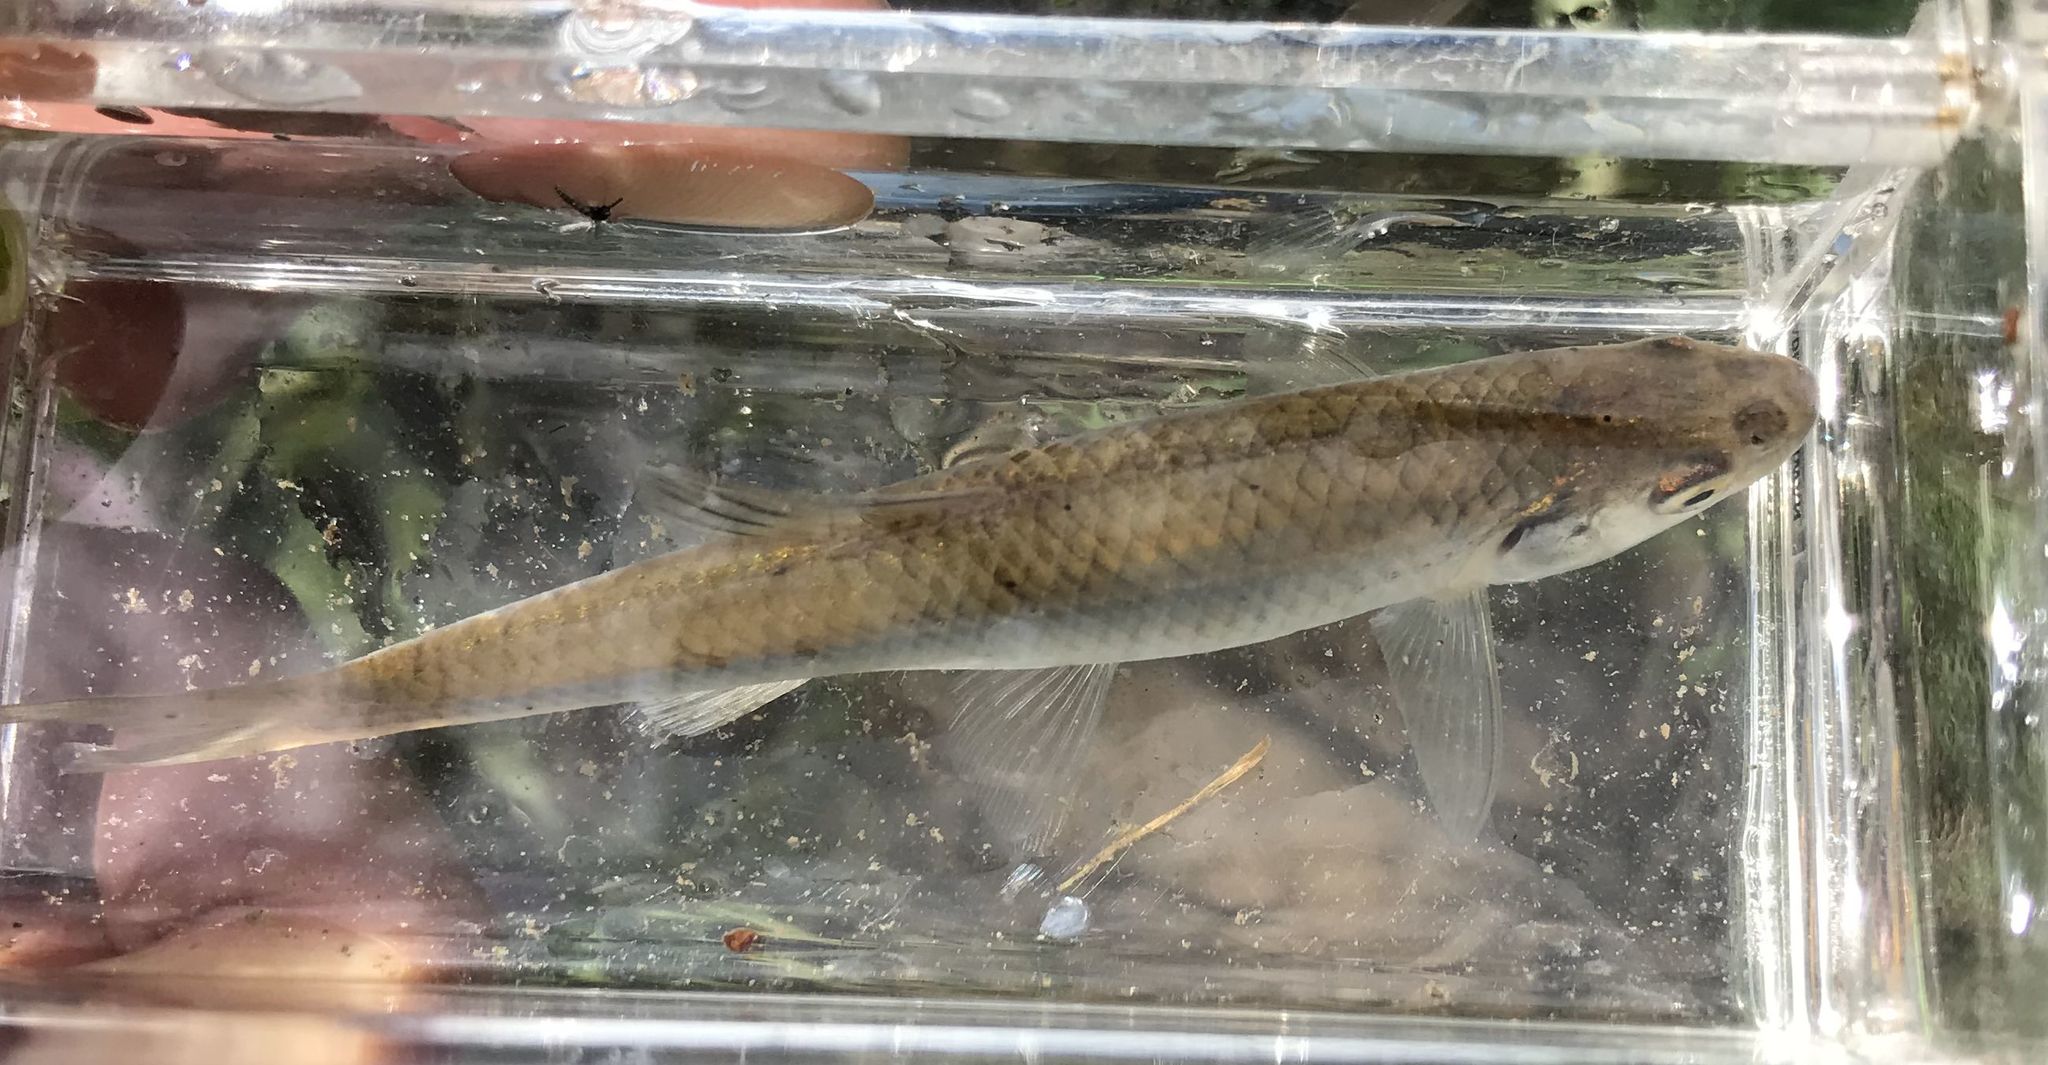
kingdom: Animalia
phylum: Chordata
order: Cypriniformes
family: Cyprinidae
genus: Cyprinella
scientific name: Cyprinella spiloptera
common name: Spotfin shiner
